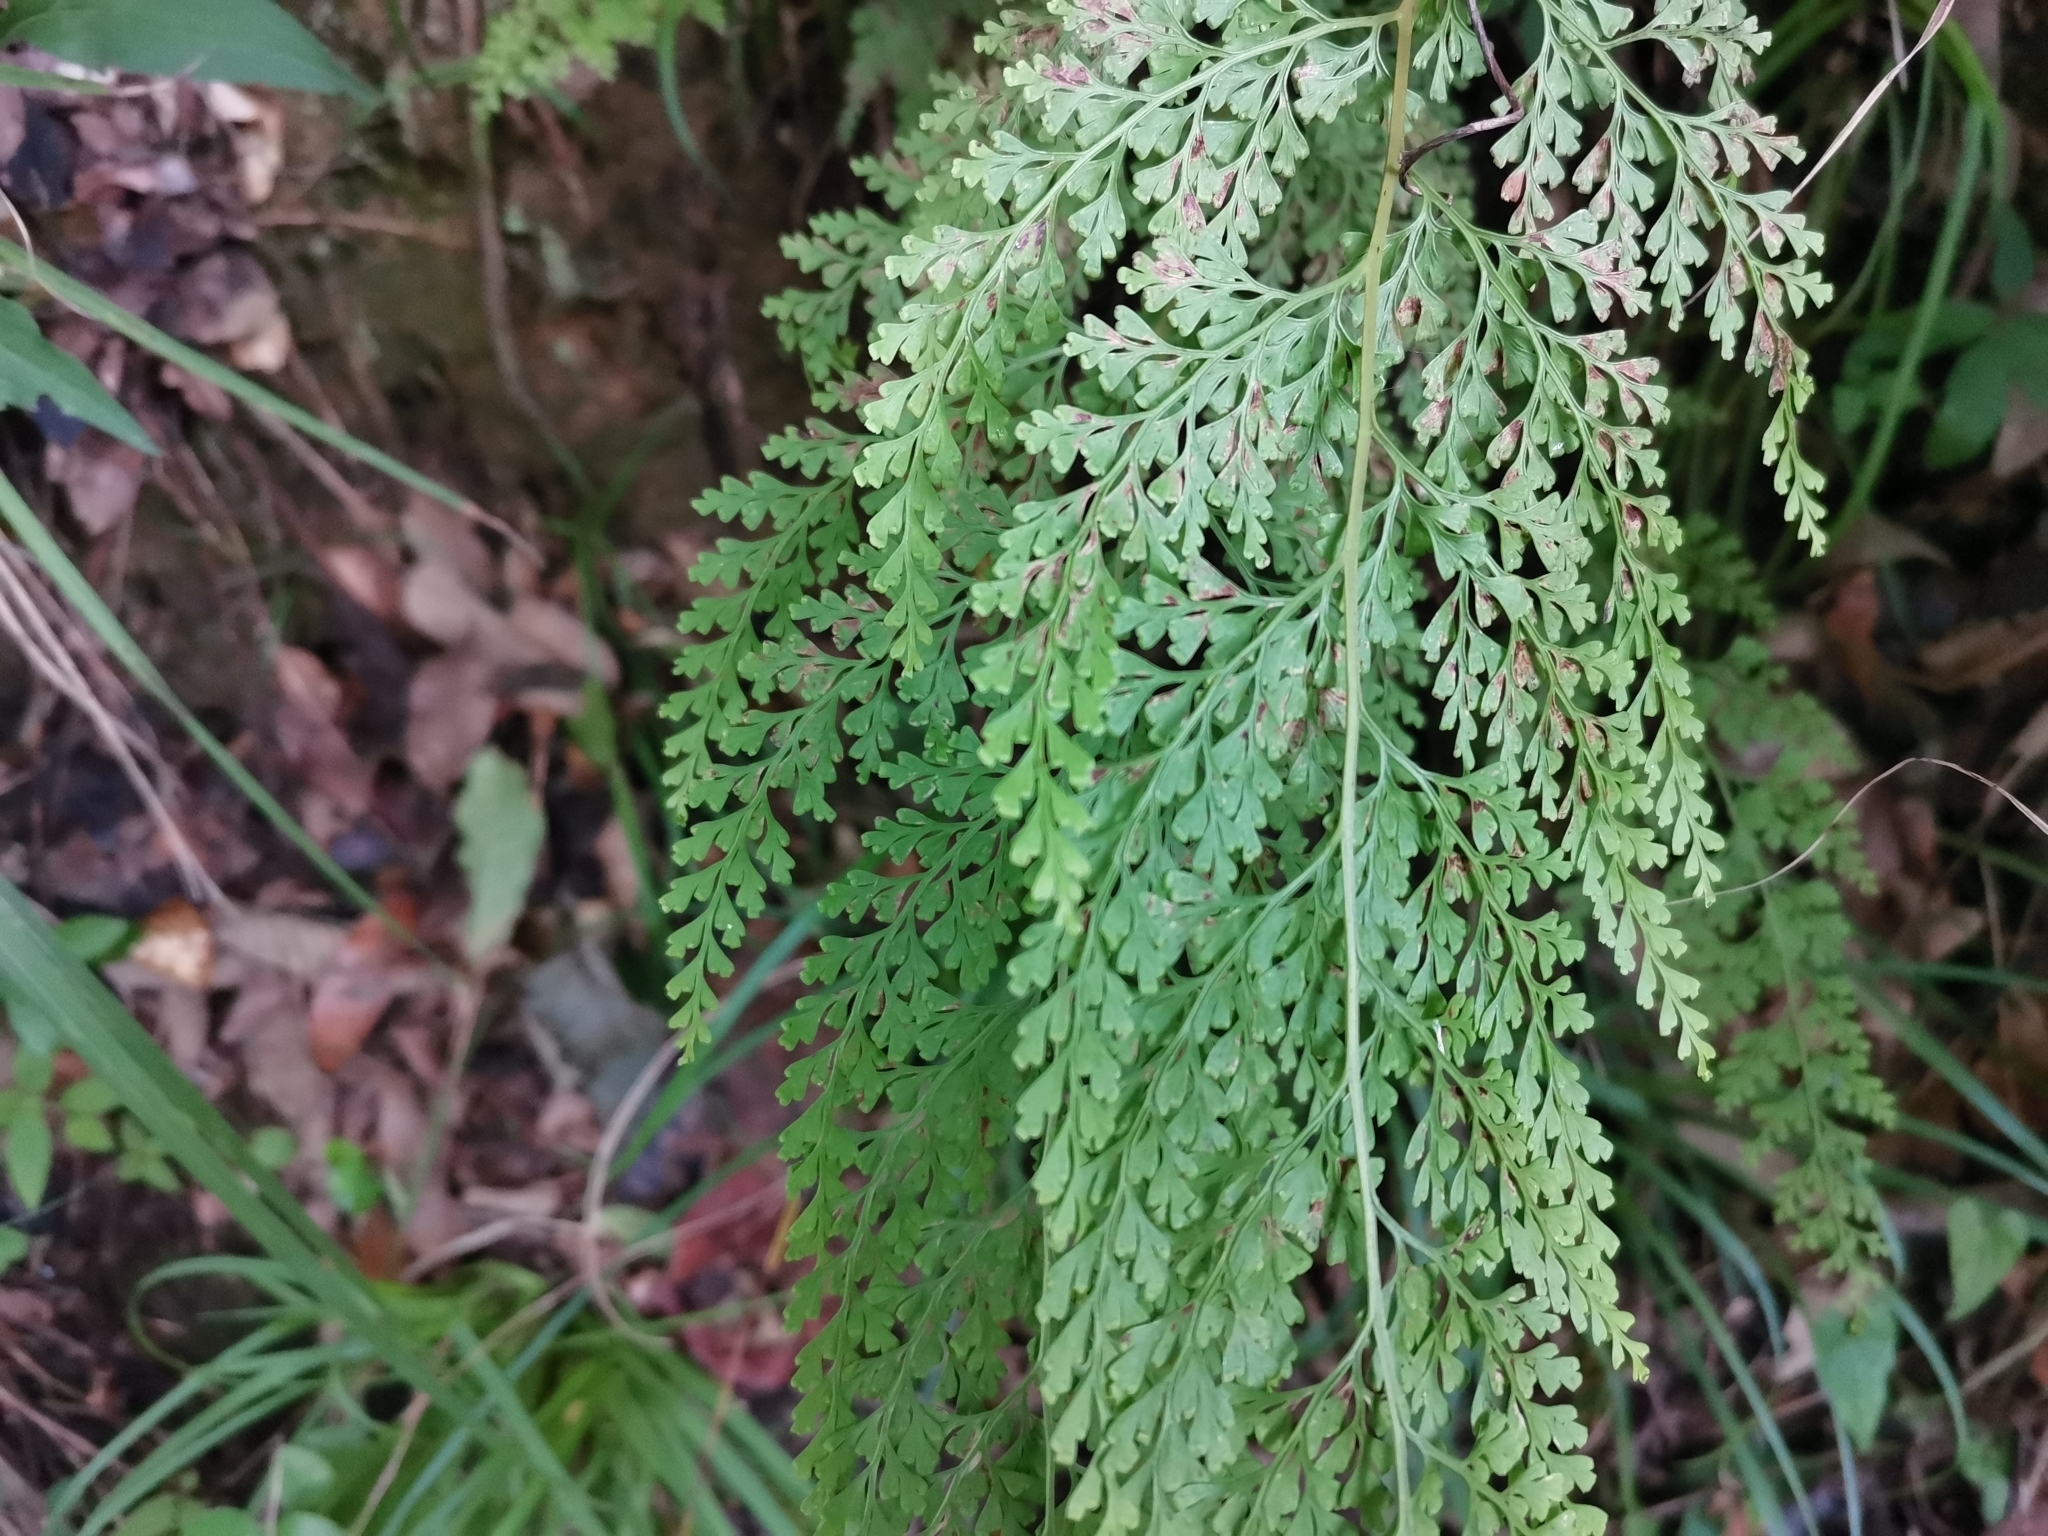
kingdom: Plantae
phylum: Tracheophyta
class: Polypodiopsida
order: Polypodiales
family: Lindsaeaceae
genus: Odontosoria
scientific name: Odontosoria chinensis
